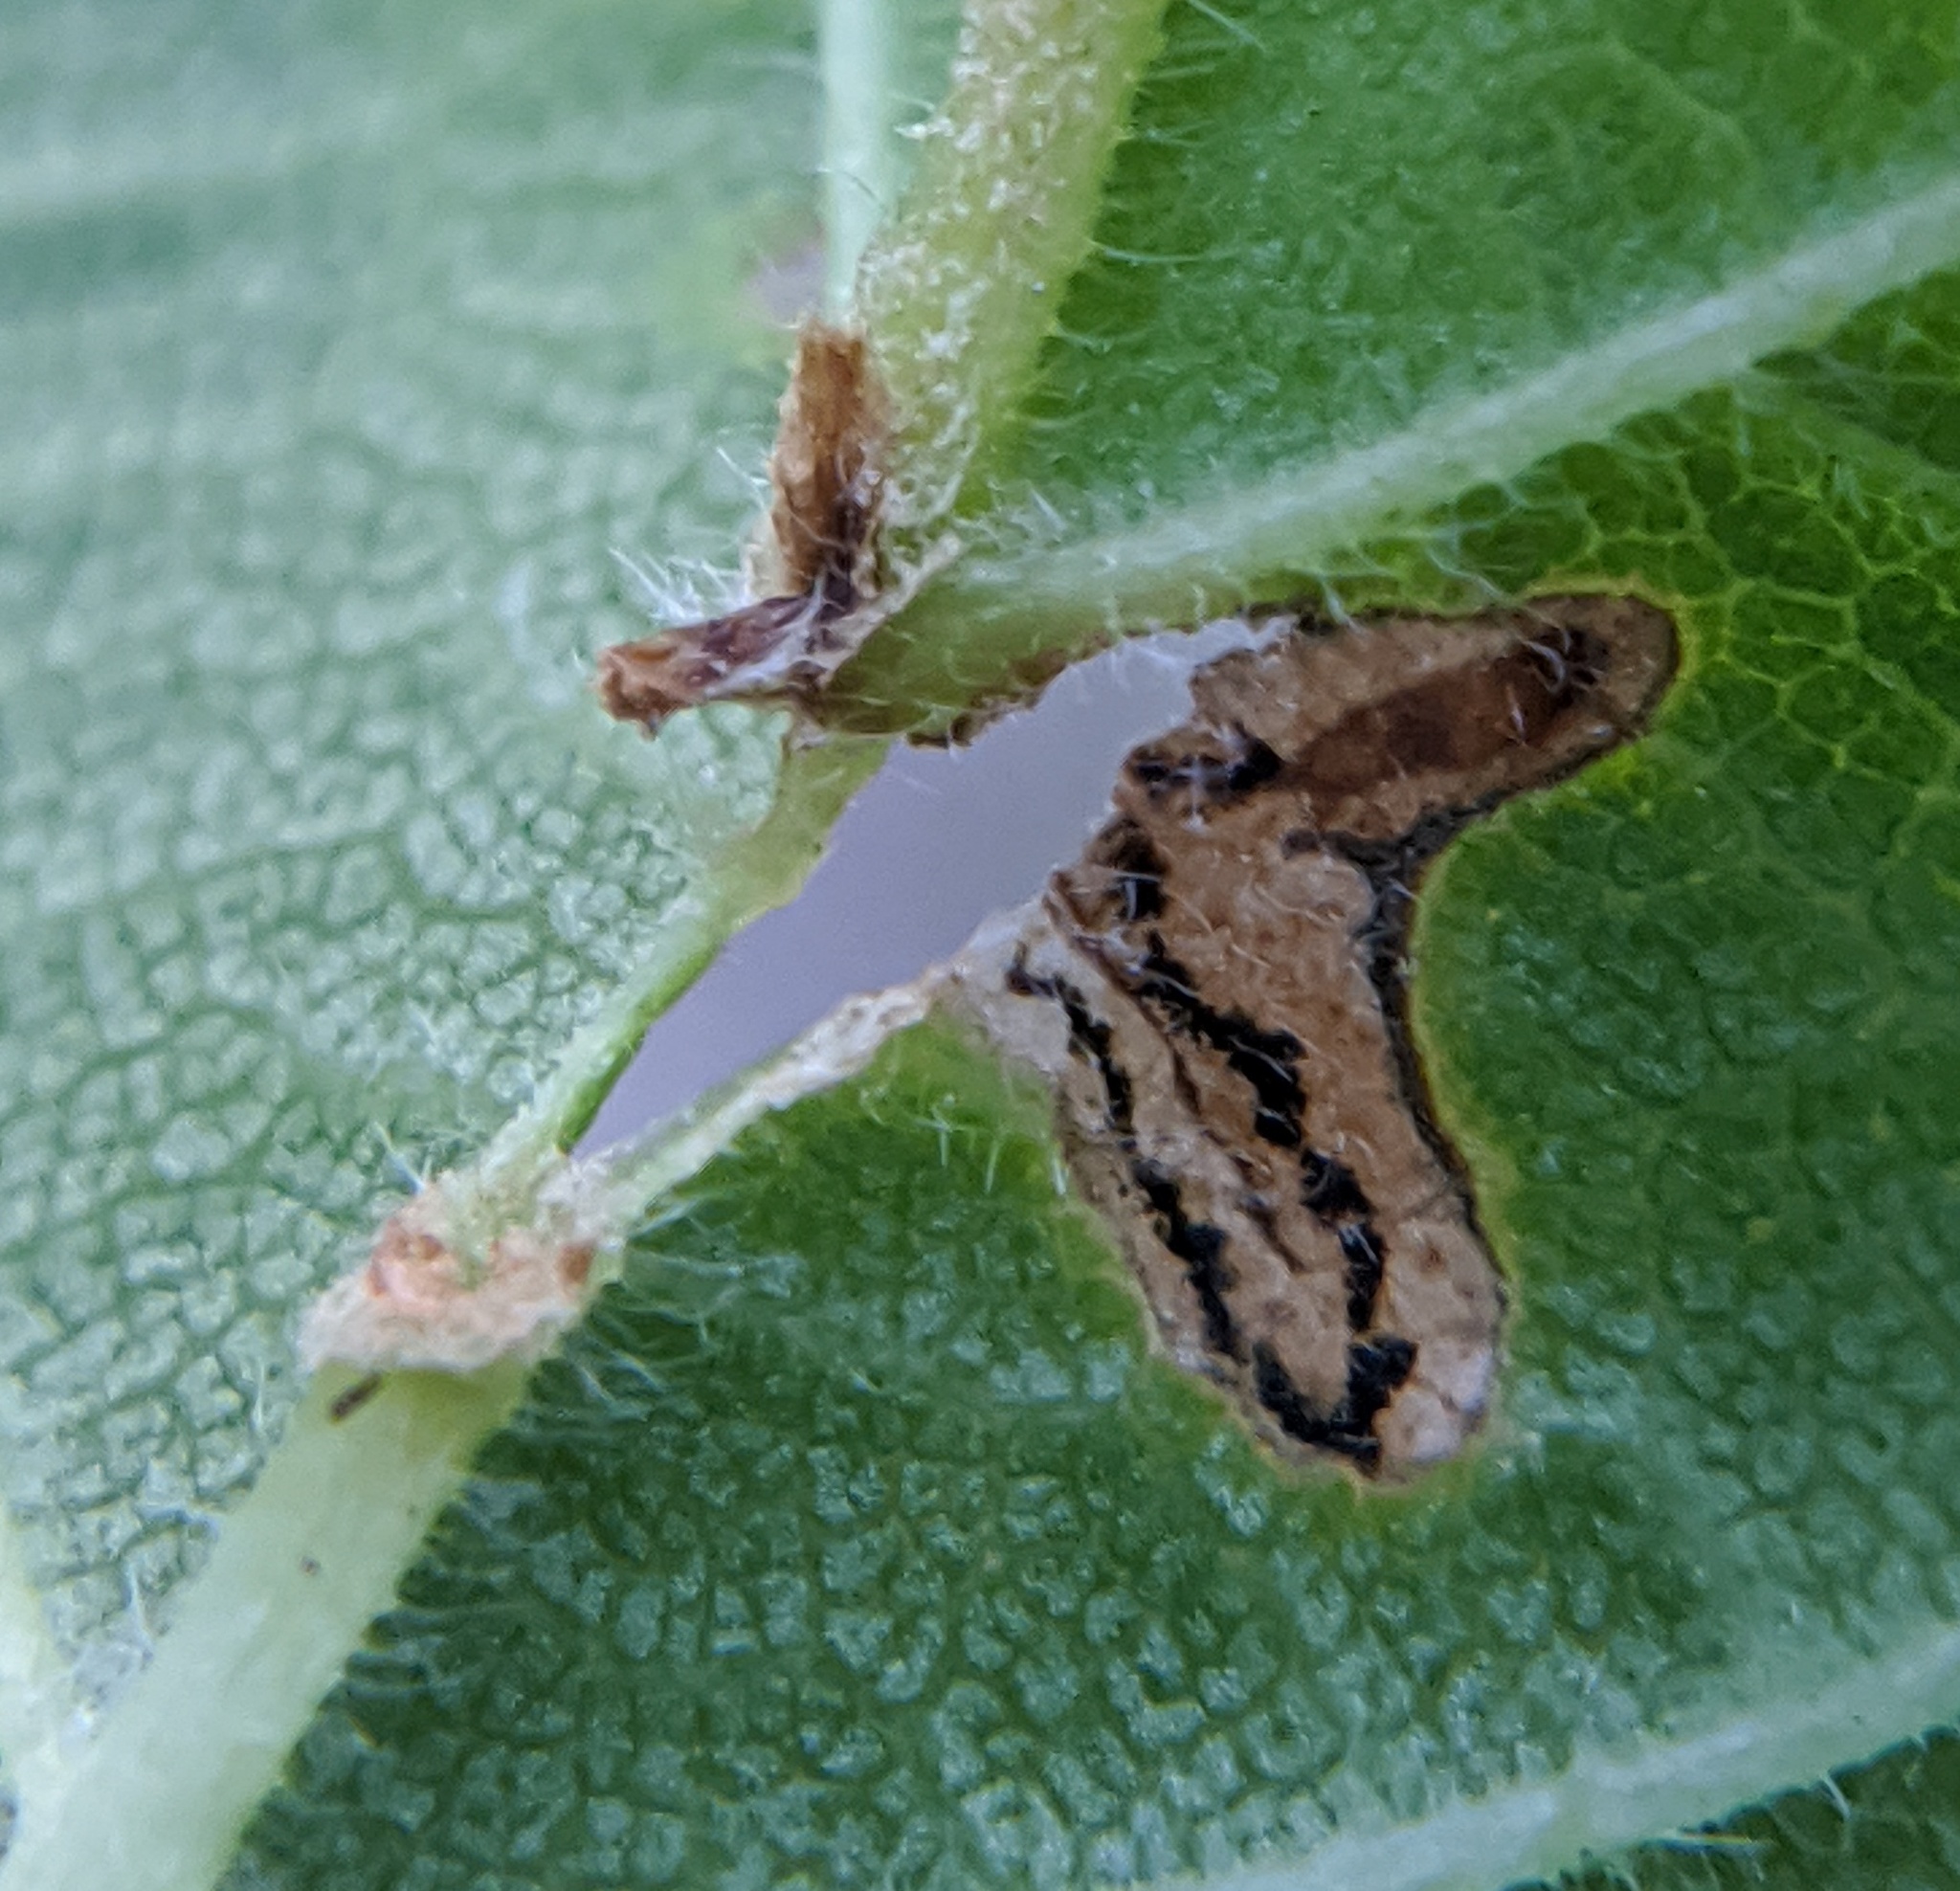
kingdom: Animalia
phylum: Arthropoda
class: Insecta
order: Coleoptera
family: Curculionidae
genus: Orchestes
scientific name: Orchestes steppensis
